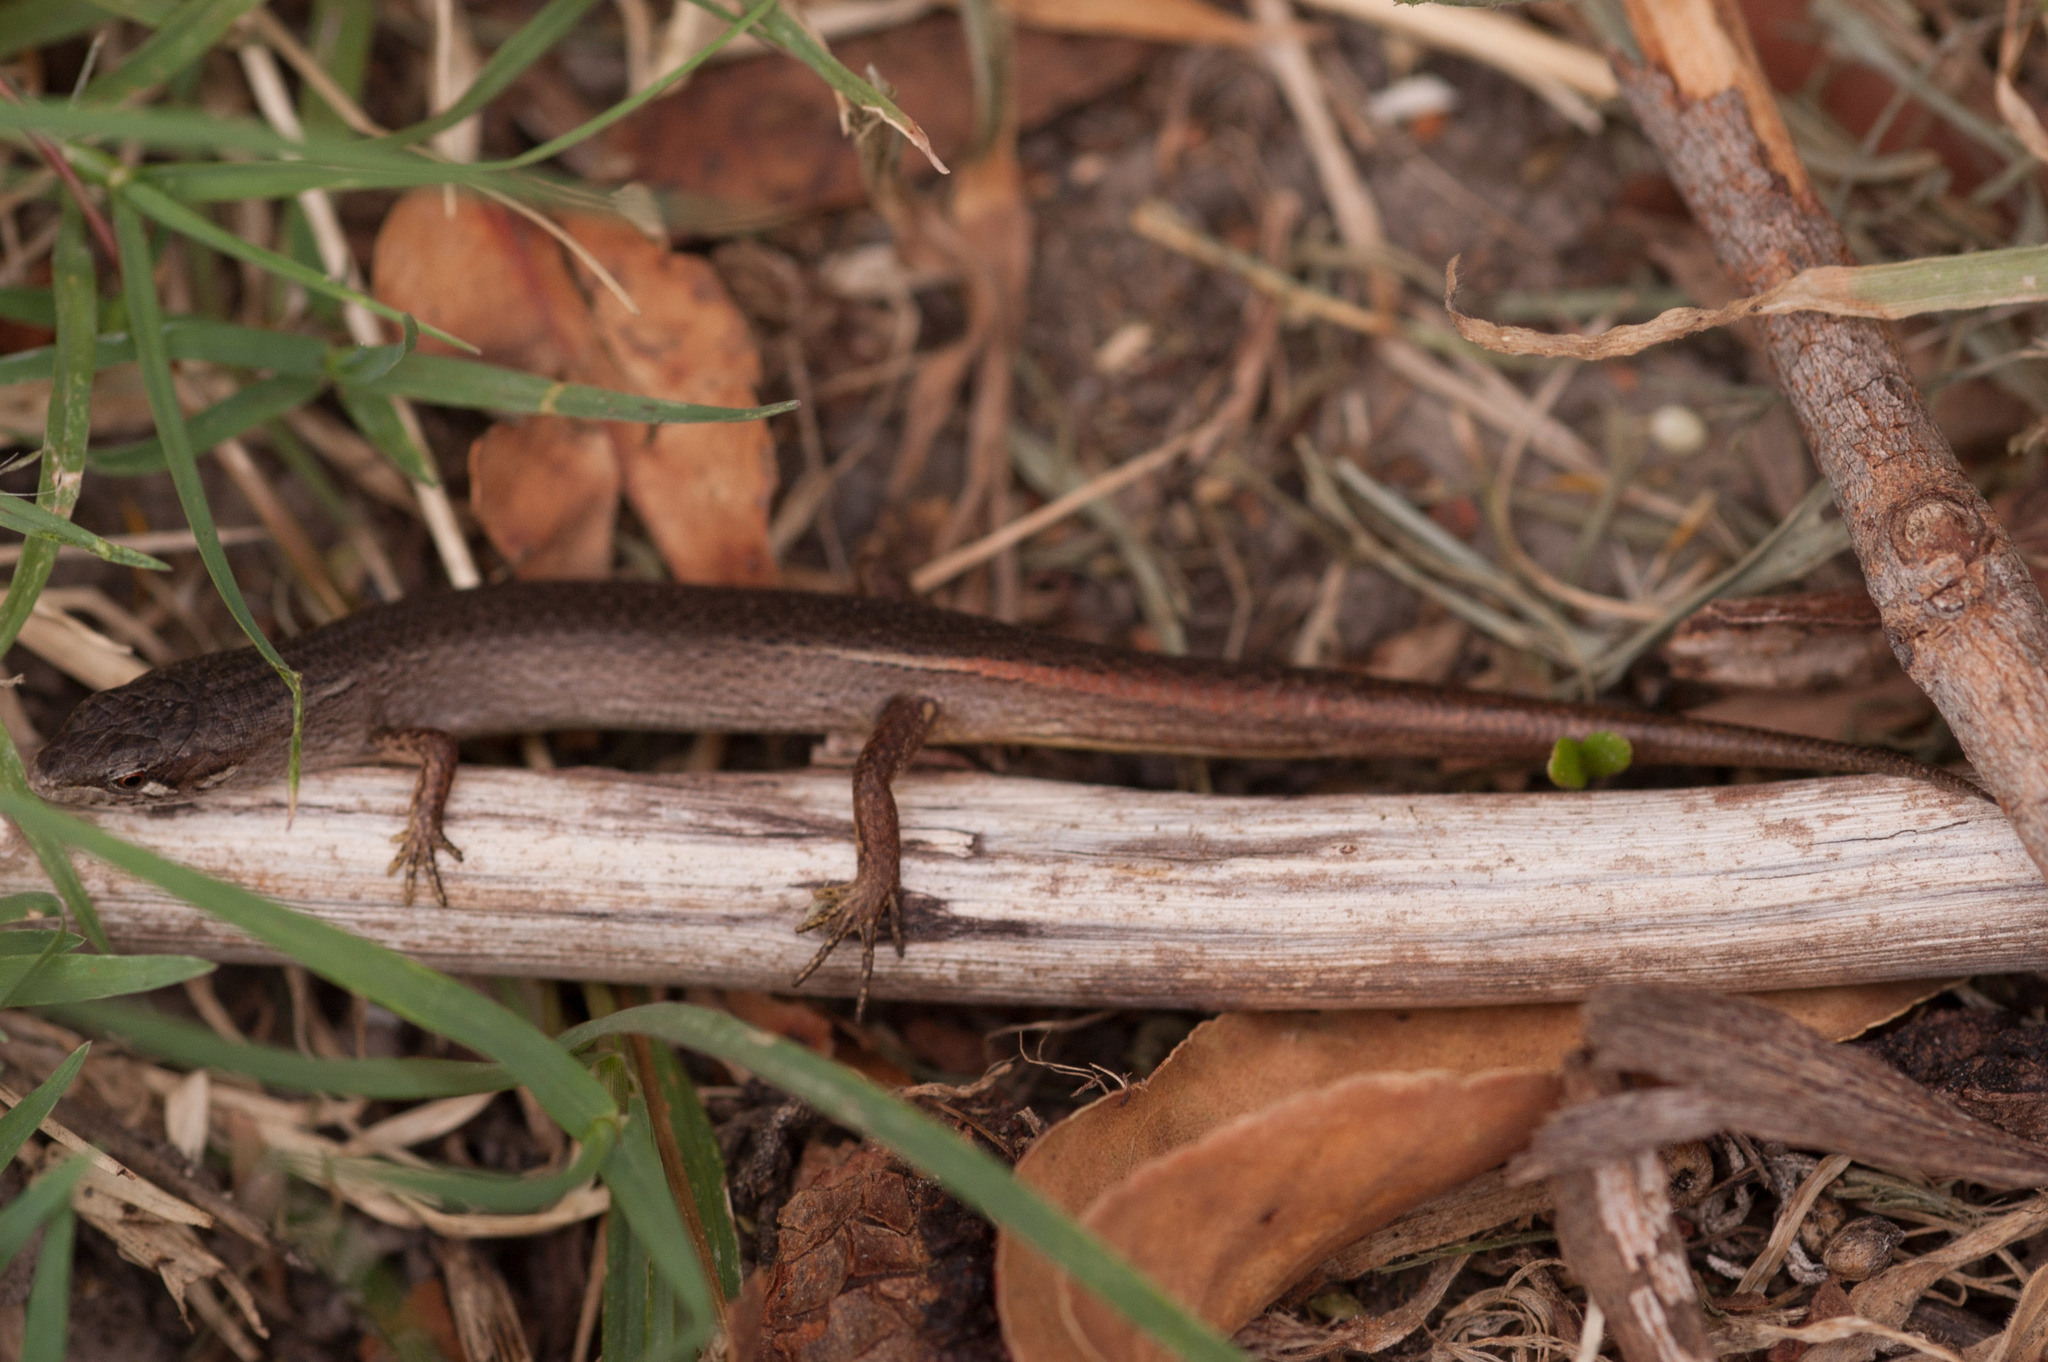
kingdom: Animalia
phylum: Chordata
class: Squamata
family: Scincidae
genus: Saproscincus
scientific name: Saproscincus mustelinus
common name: Southern weasel skink
